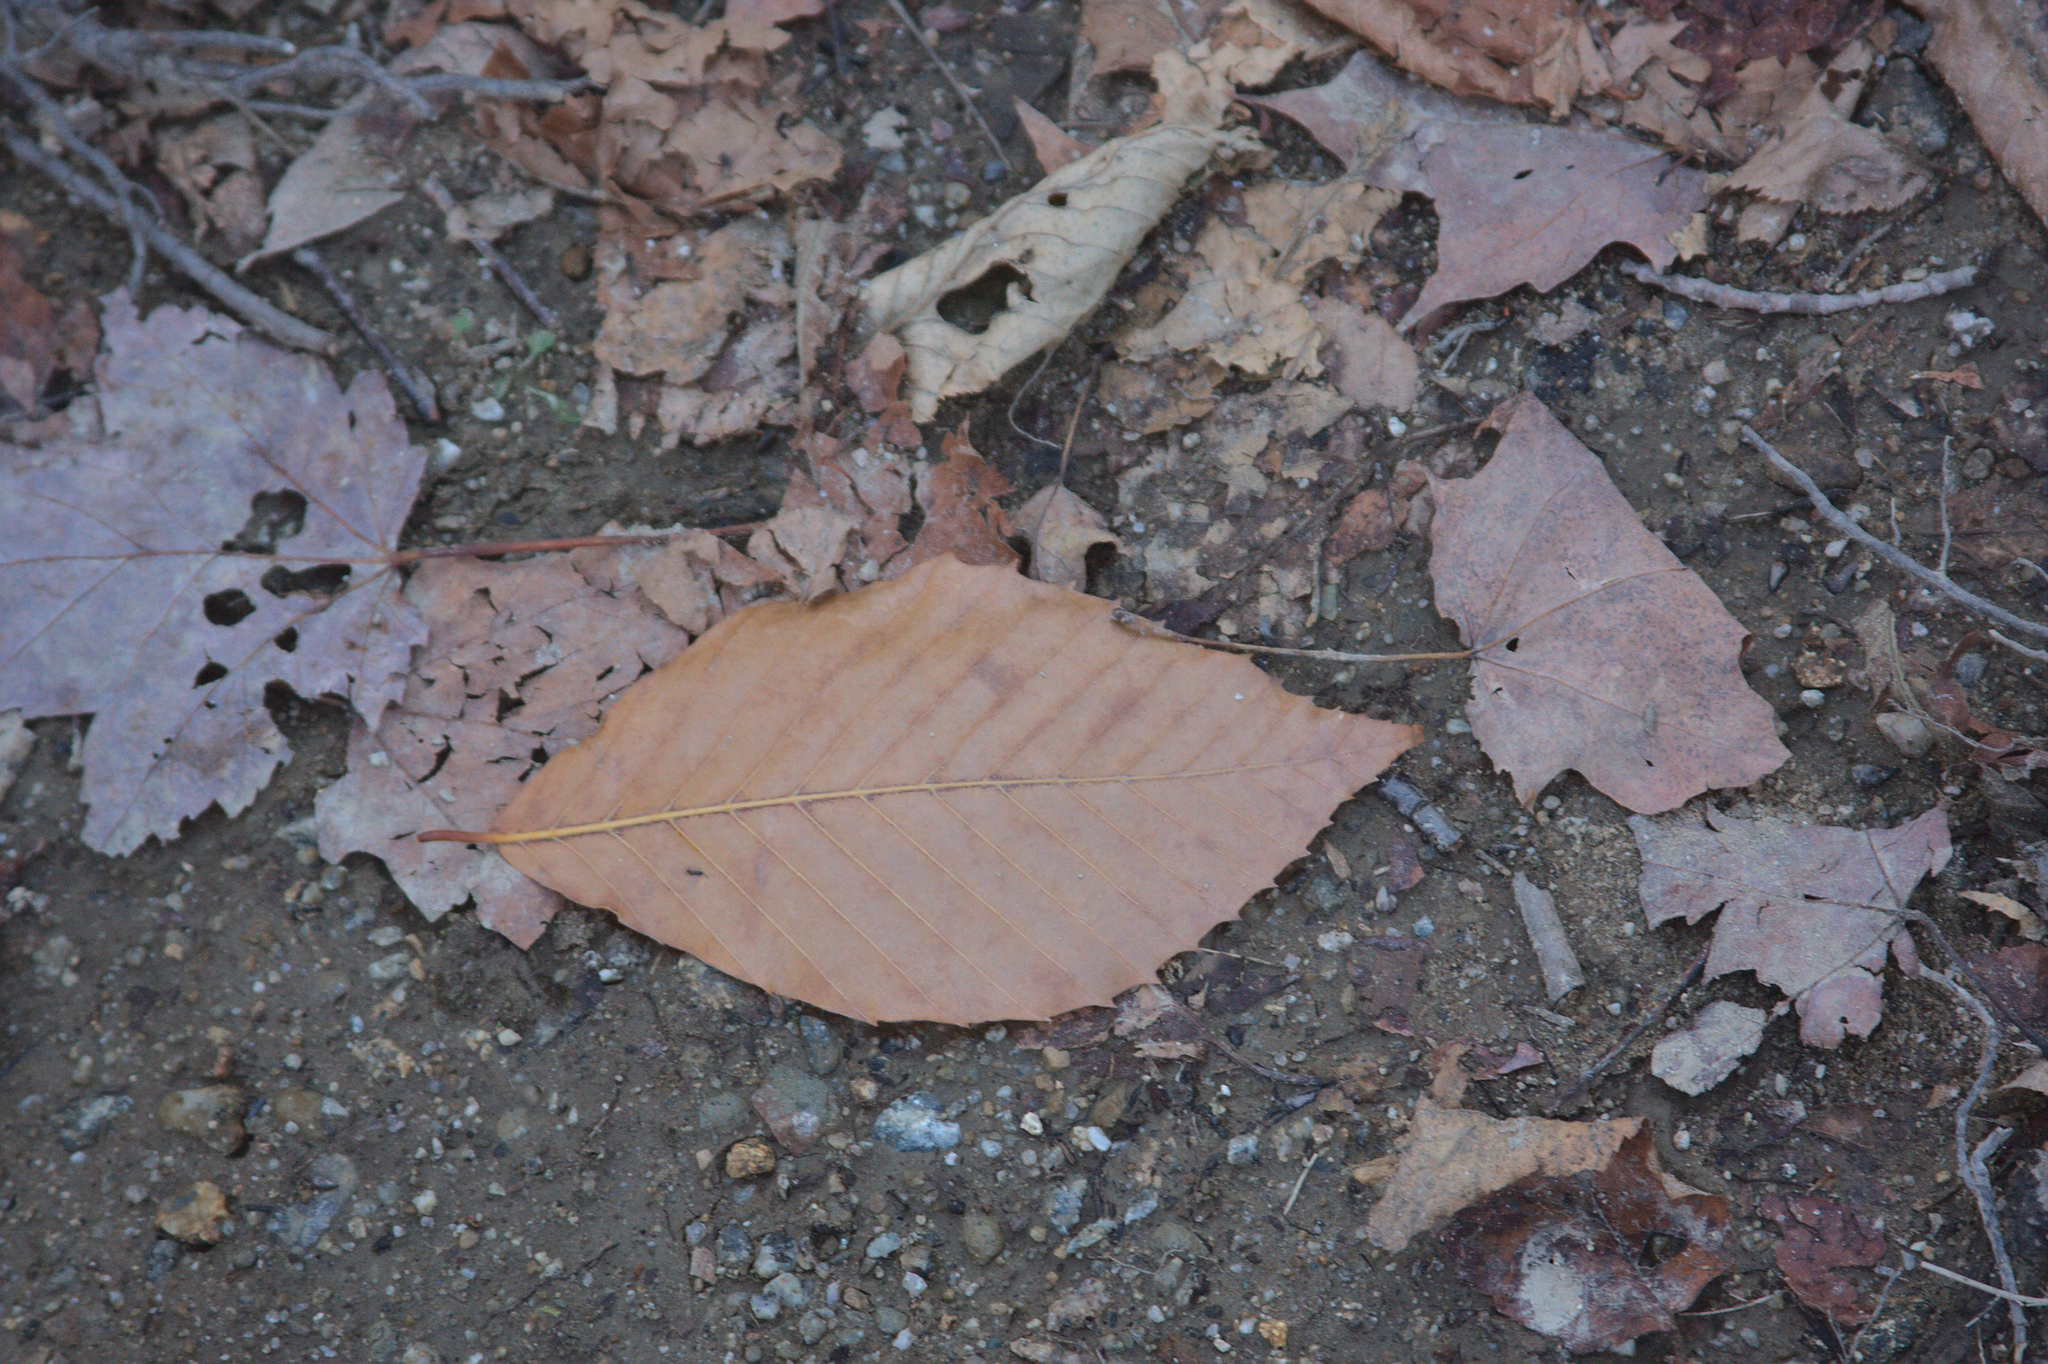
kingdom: Plantae
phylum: Tracheophyta
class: Magnoliopsida
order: Fagales
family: Fagaceae
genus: Fagus
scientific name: Fagus grandifolia
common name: American beech
